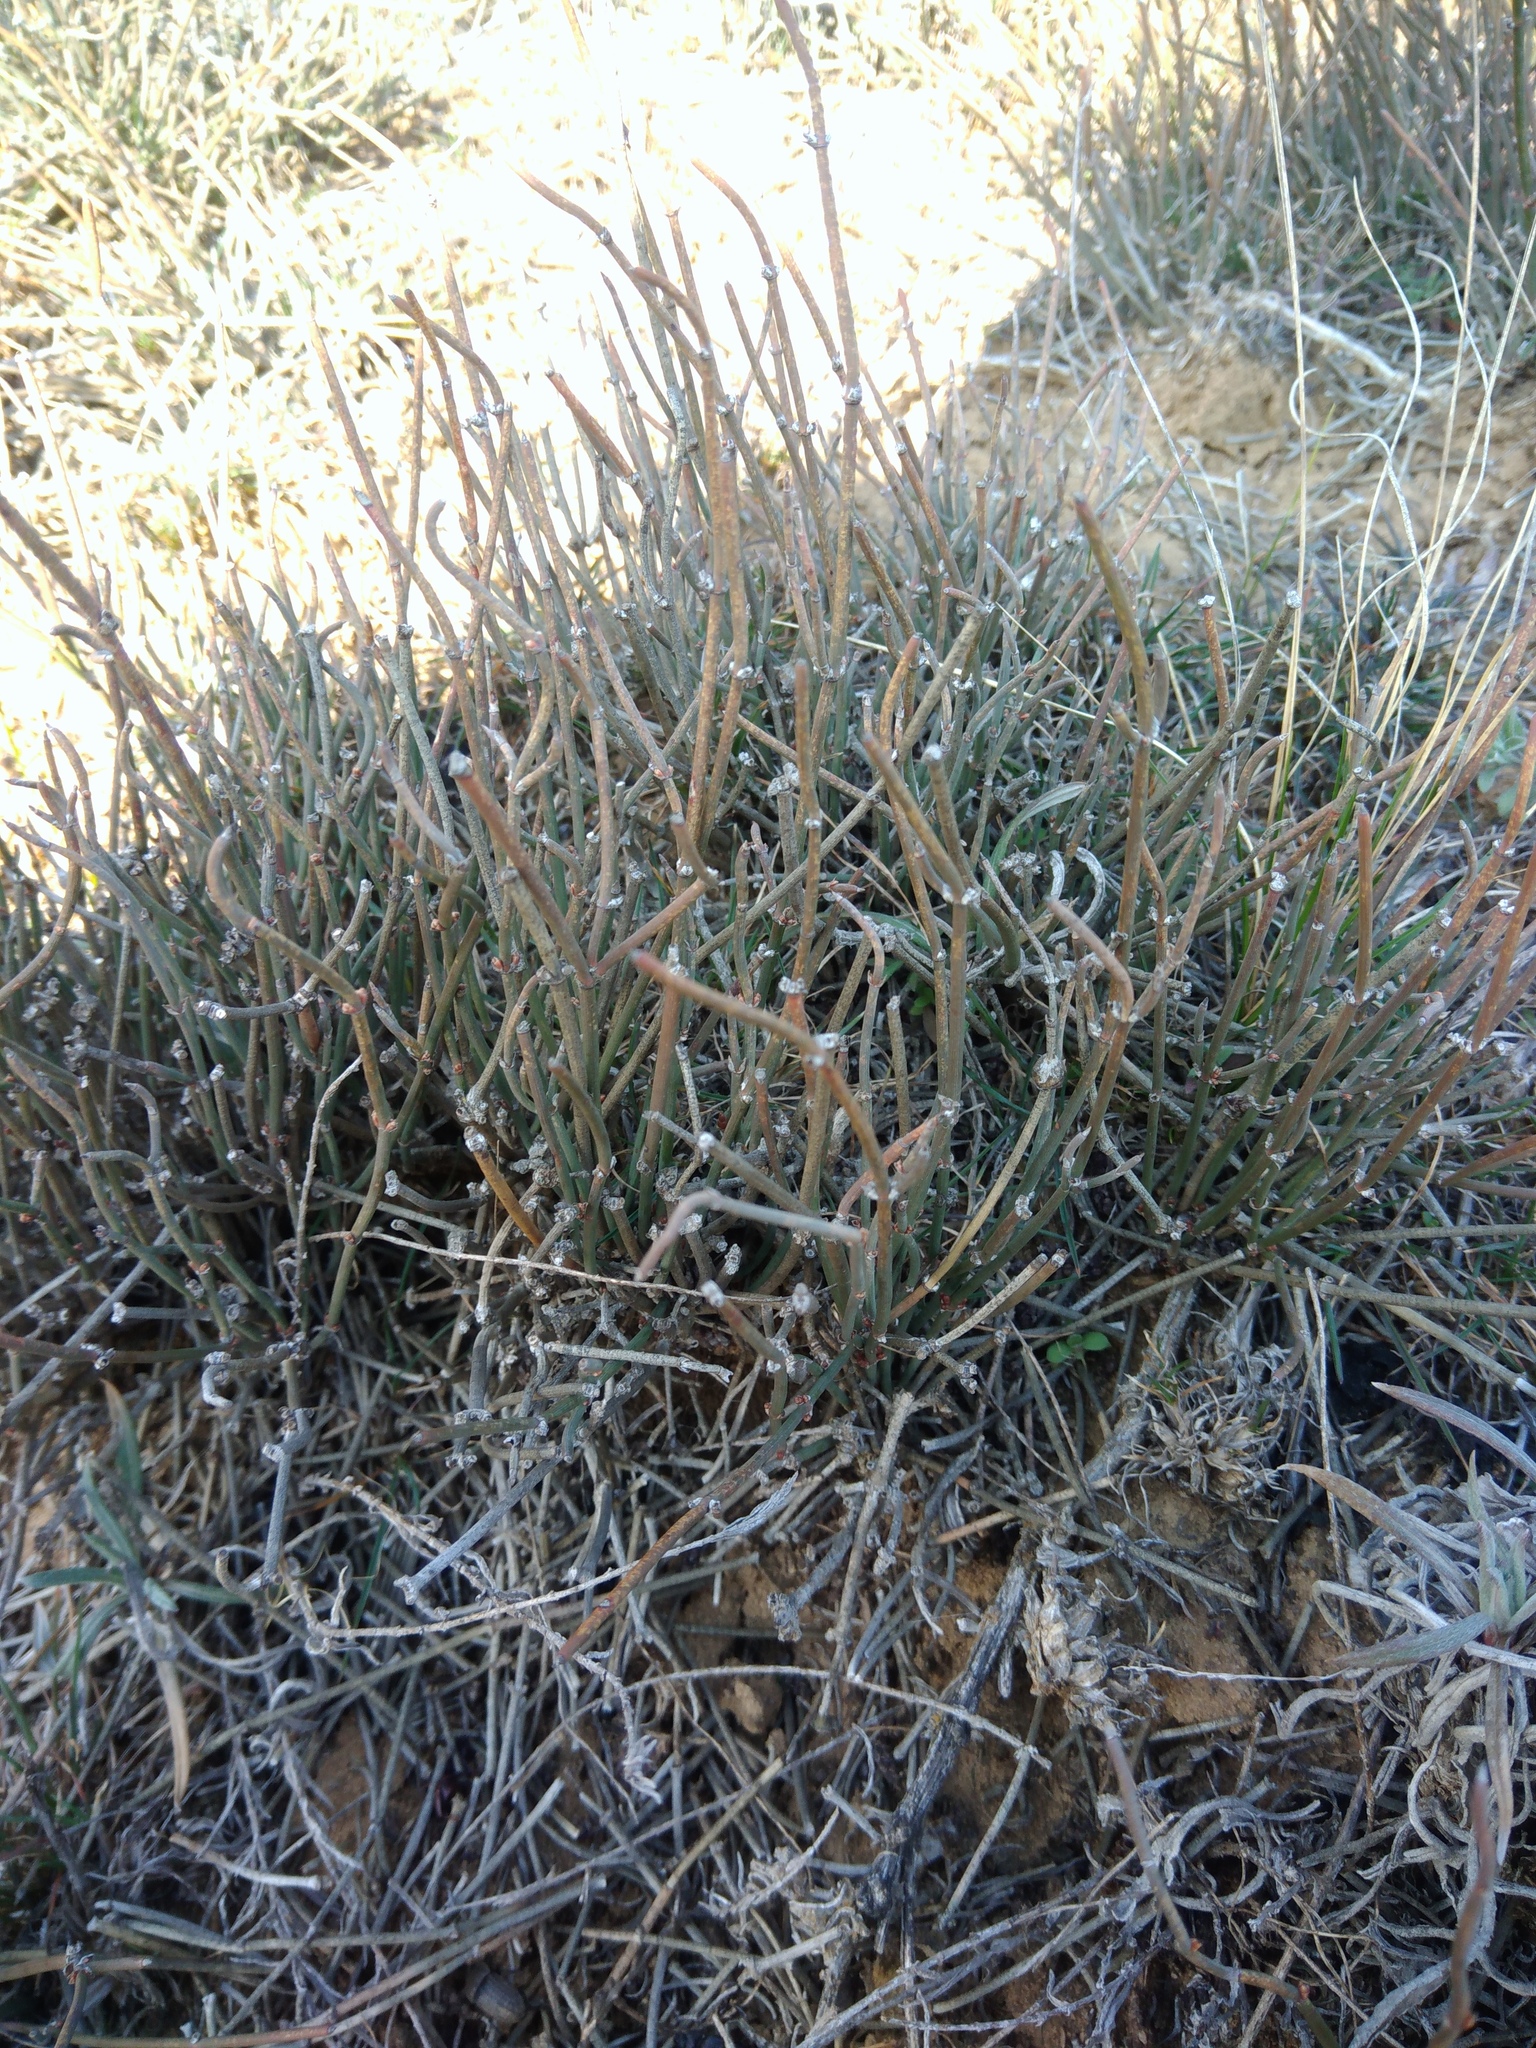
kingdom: Plantae
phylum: Tracheophyta
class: Gnetopsida
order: Ephedrales
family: Ephedraceae
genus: Ephedra
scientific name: Ephedra distachya
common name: Sea grape
